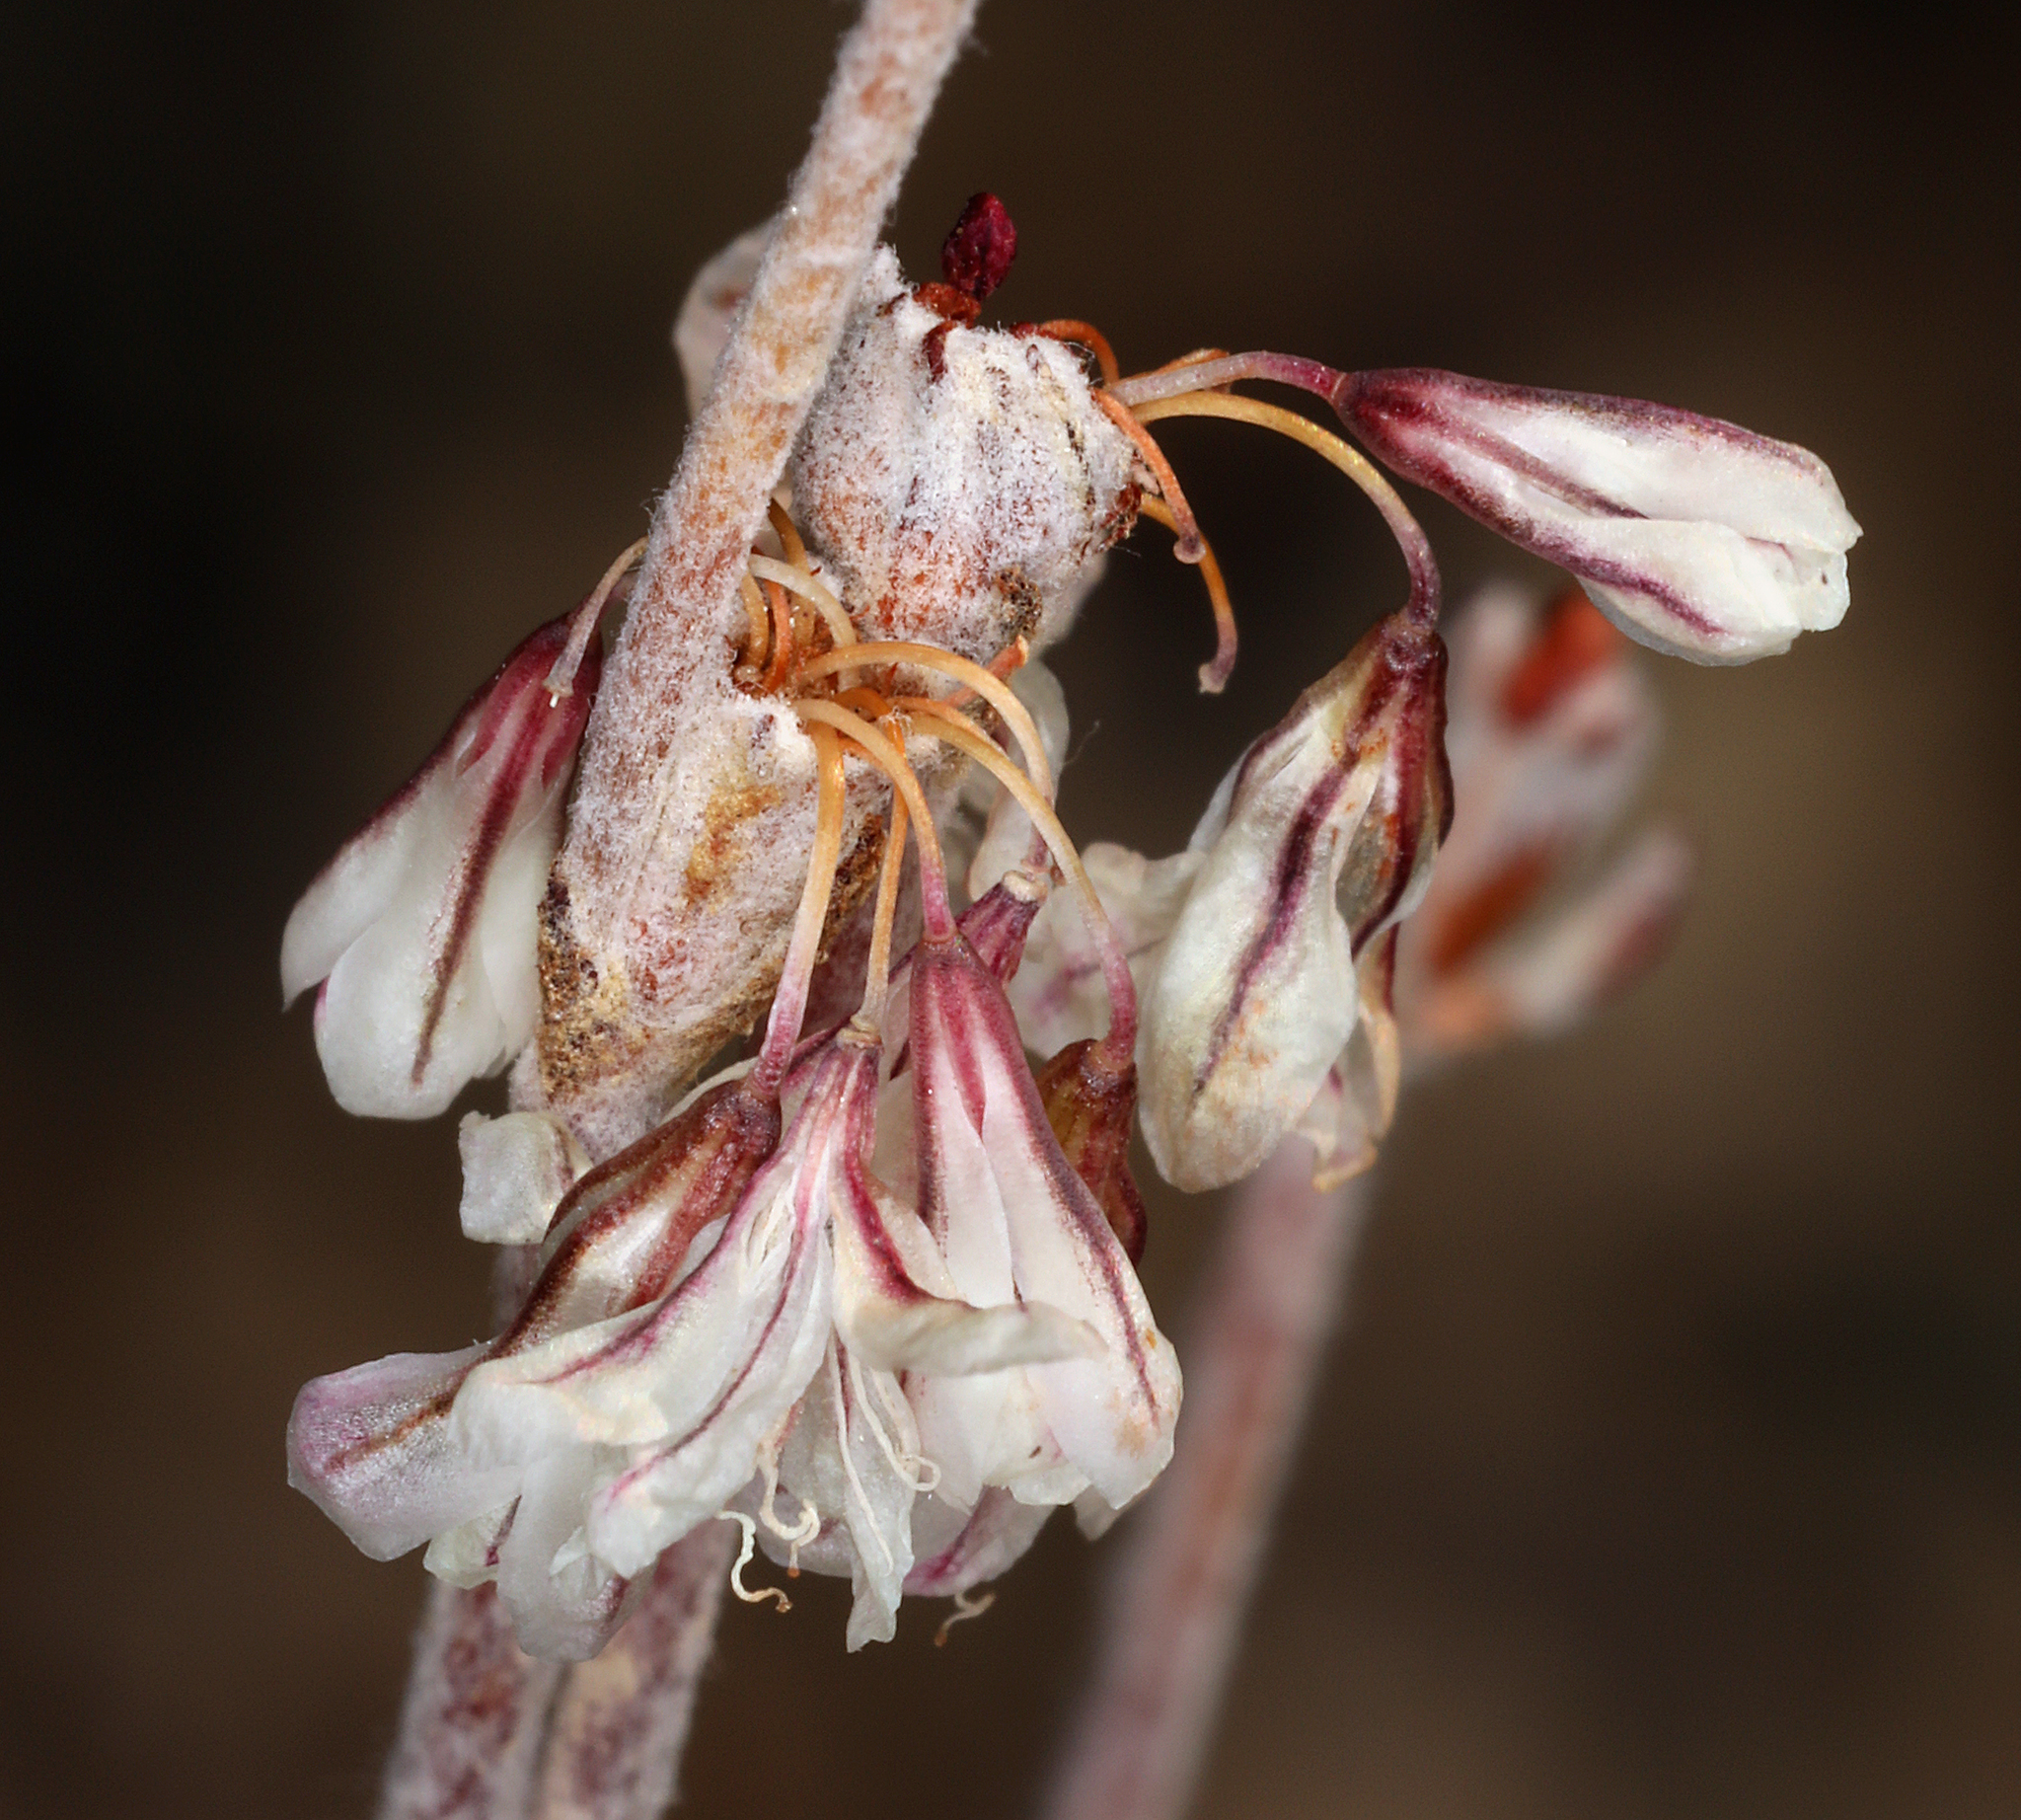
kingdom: Plantae
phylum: Tracheophyta
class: Magnoliopsida
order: Caryophyllales
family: Polygonaceae
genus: Eriogonum
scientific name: Eriogonum panamintense
